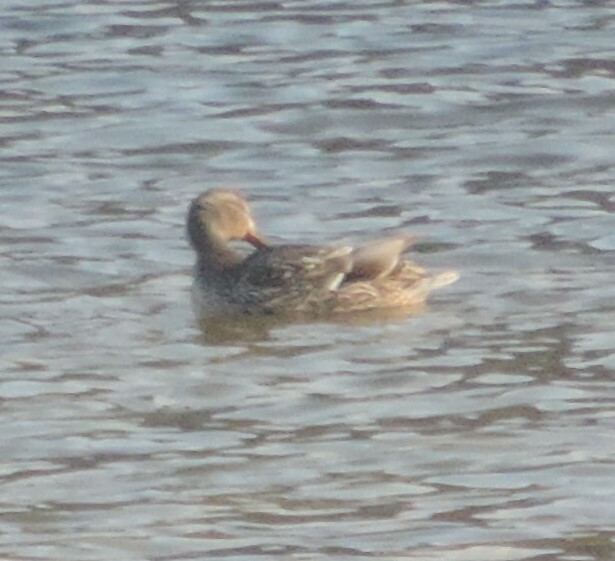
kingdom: Animalia
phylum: Chordata
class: Aves
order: Anseriformes
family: Anatidae
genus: Anas
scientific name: Anas platyrhynchos
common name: Mallard
